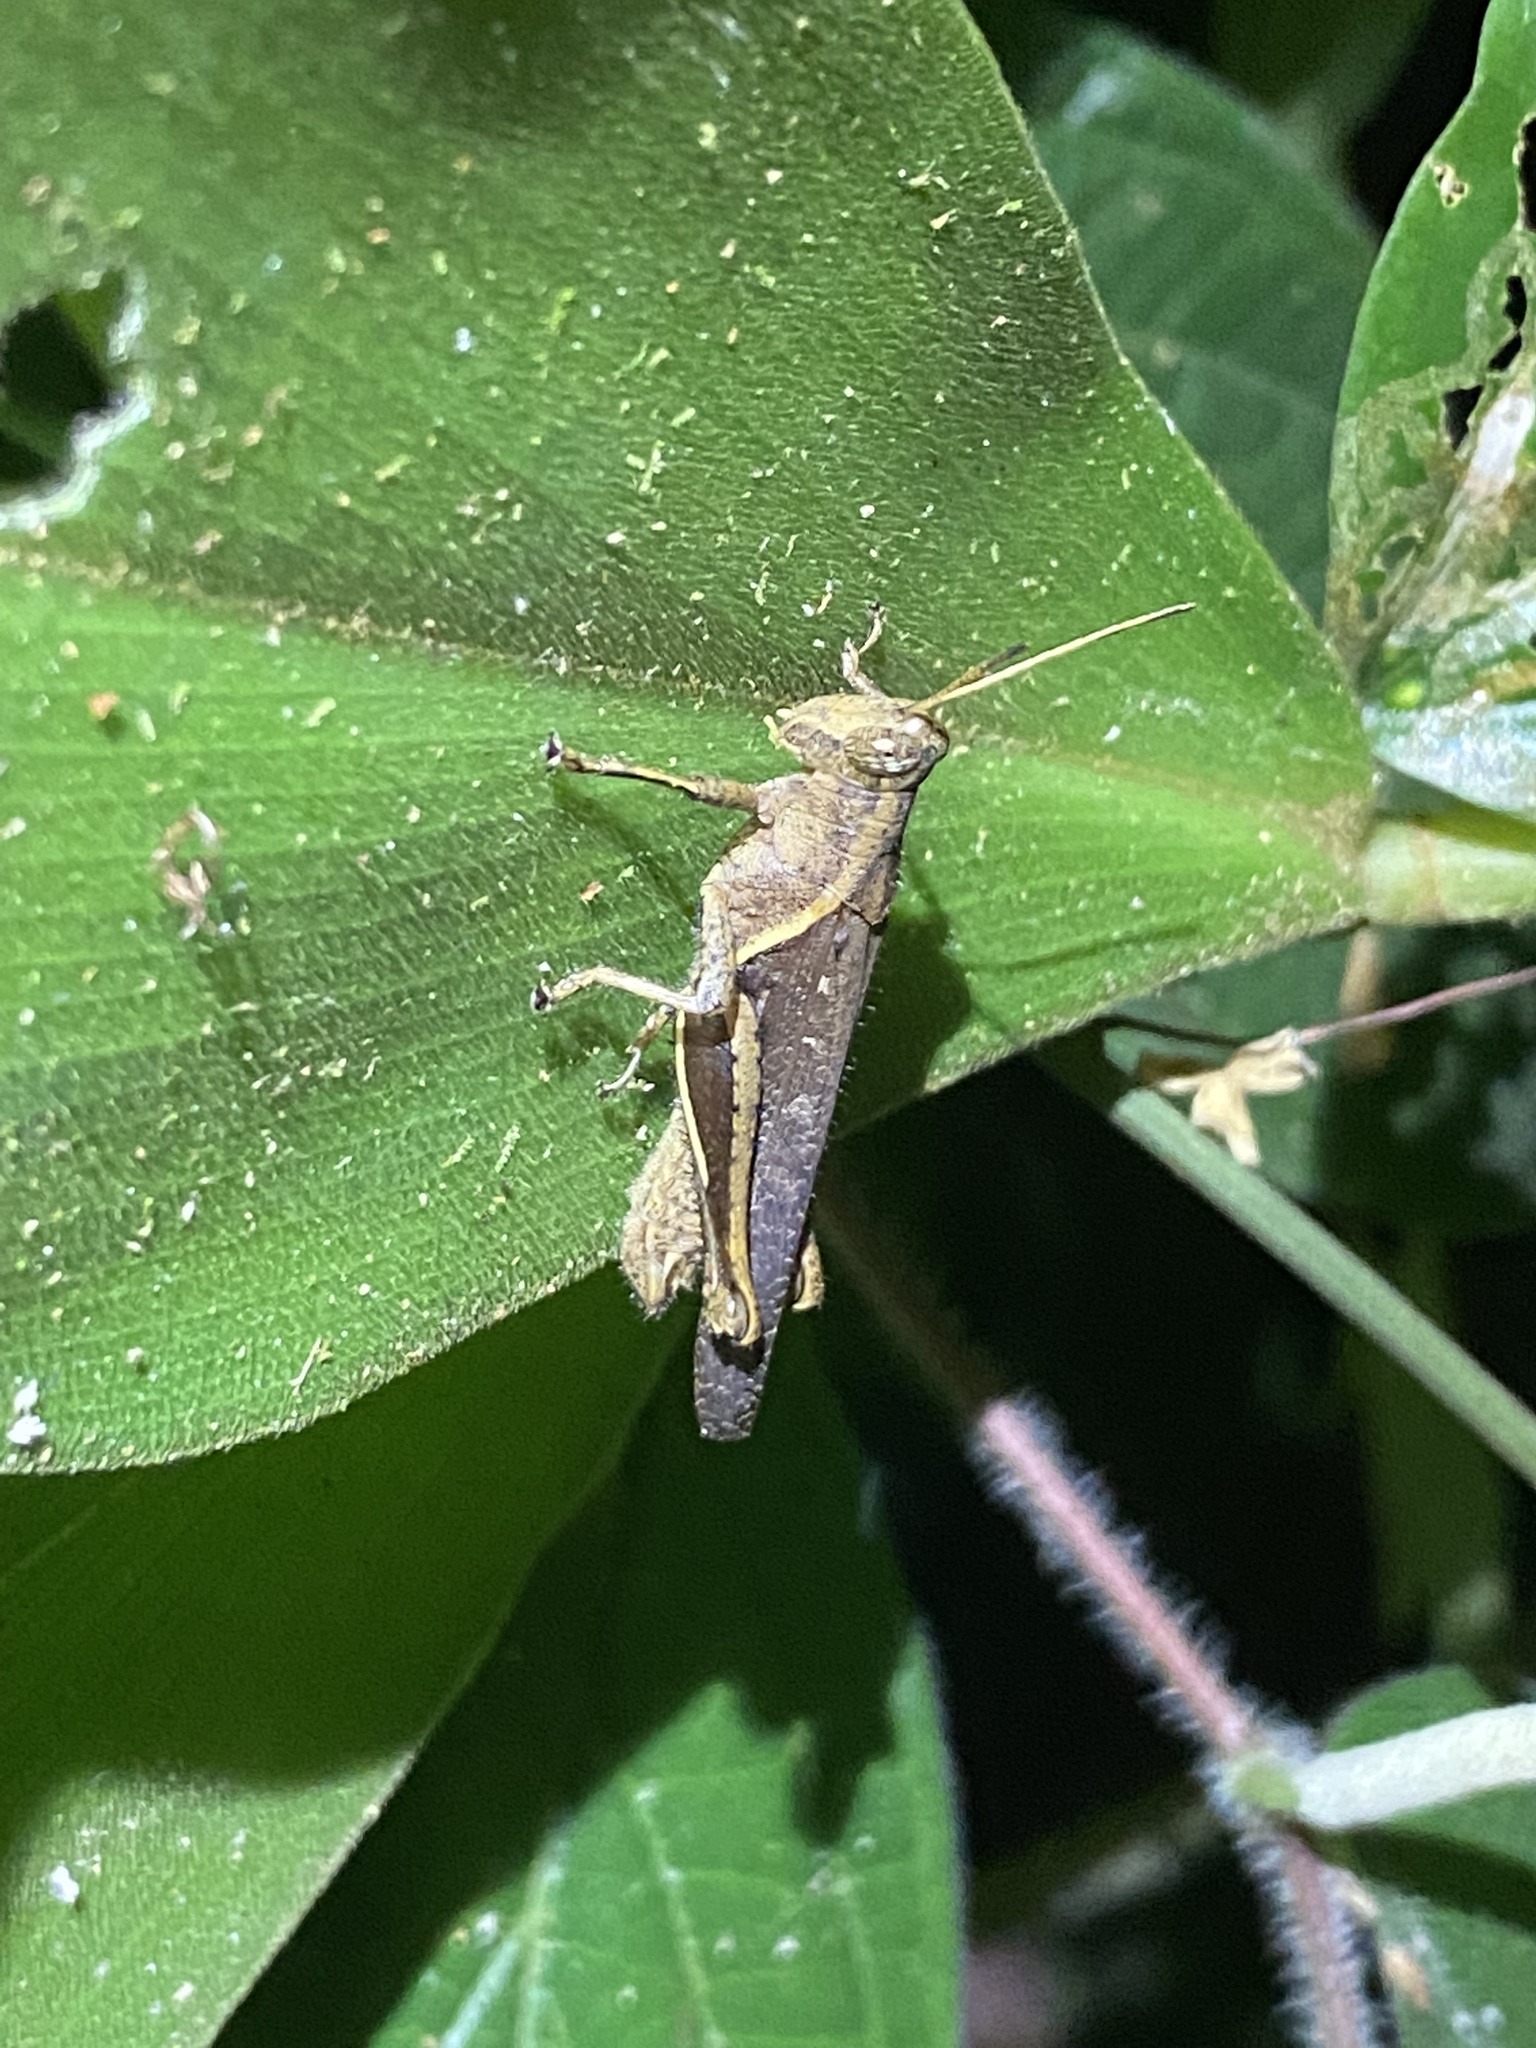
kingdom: Animalia
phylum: Arthropoda
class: Insecta
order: Orthoptera
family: Acrididae
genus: Abracris
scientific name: Abracris flavolineata
